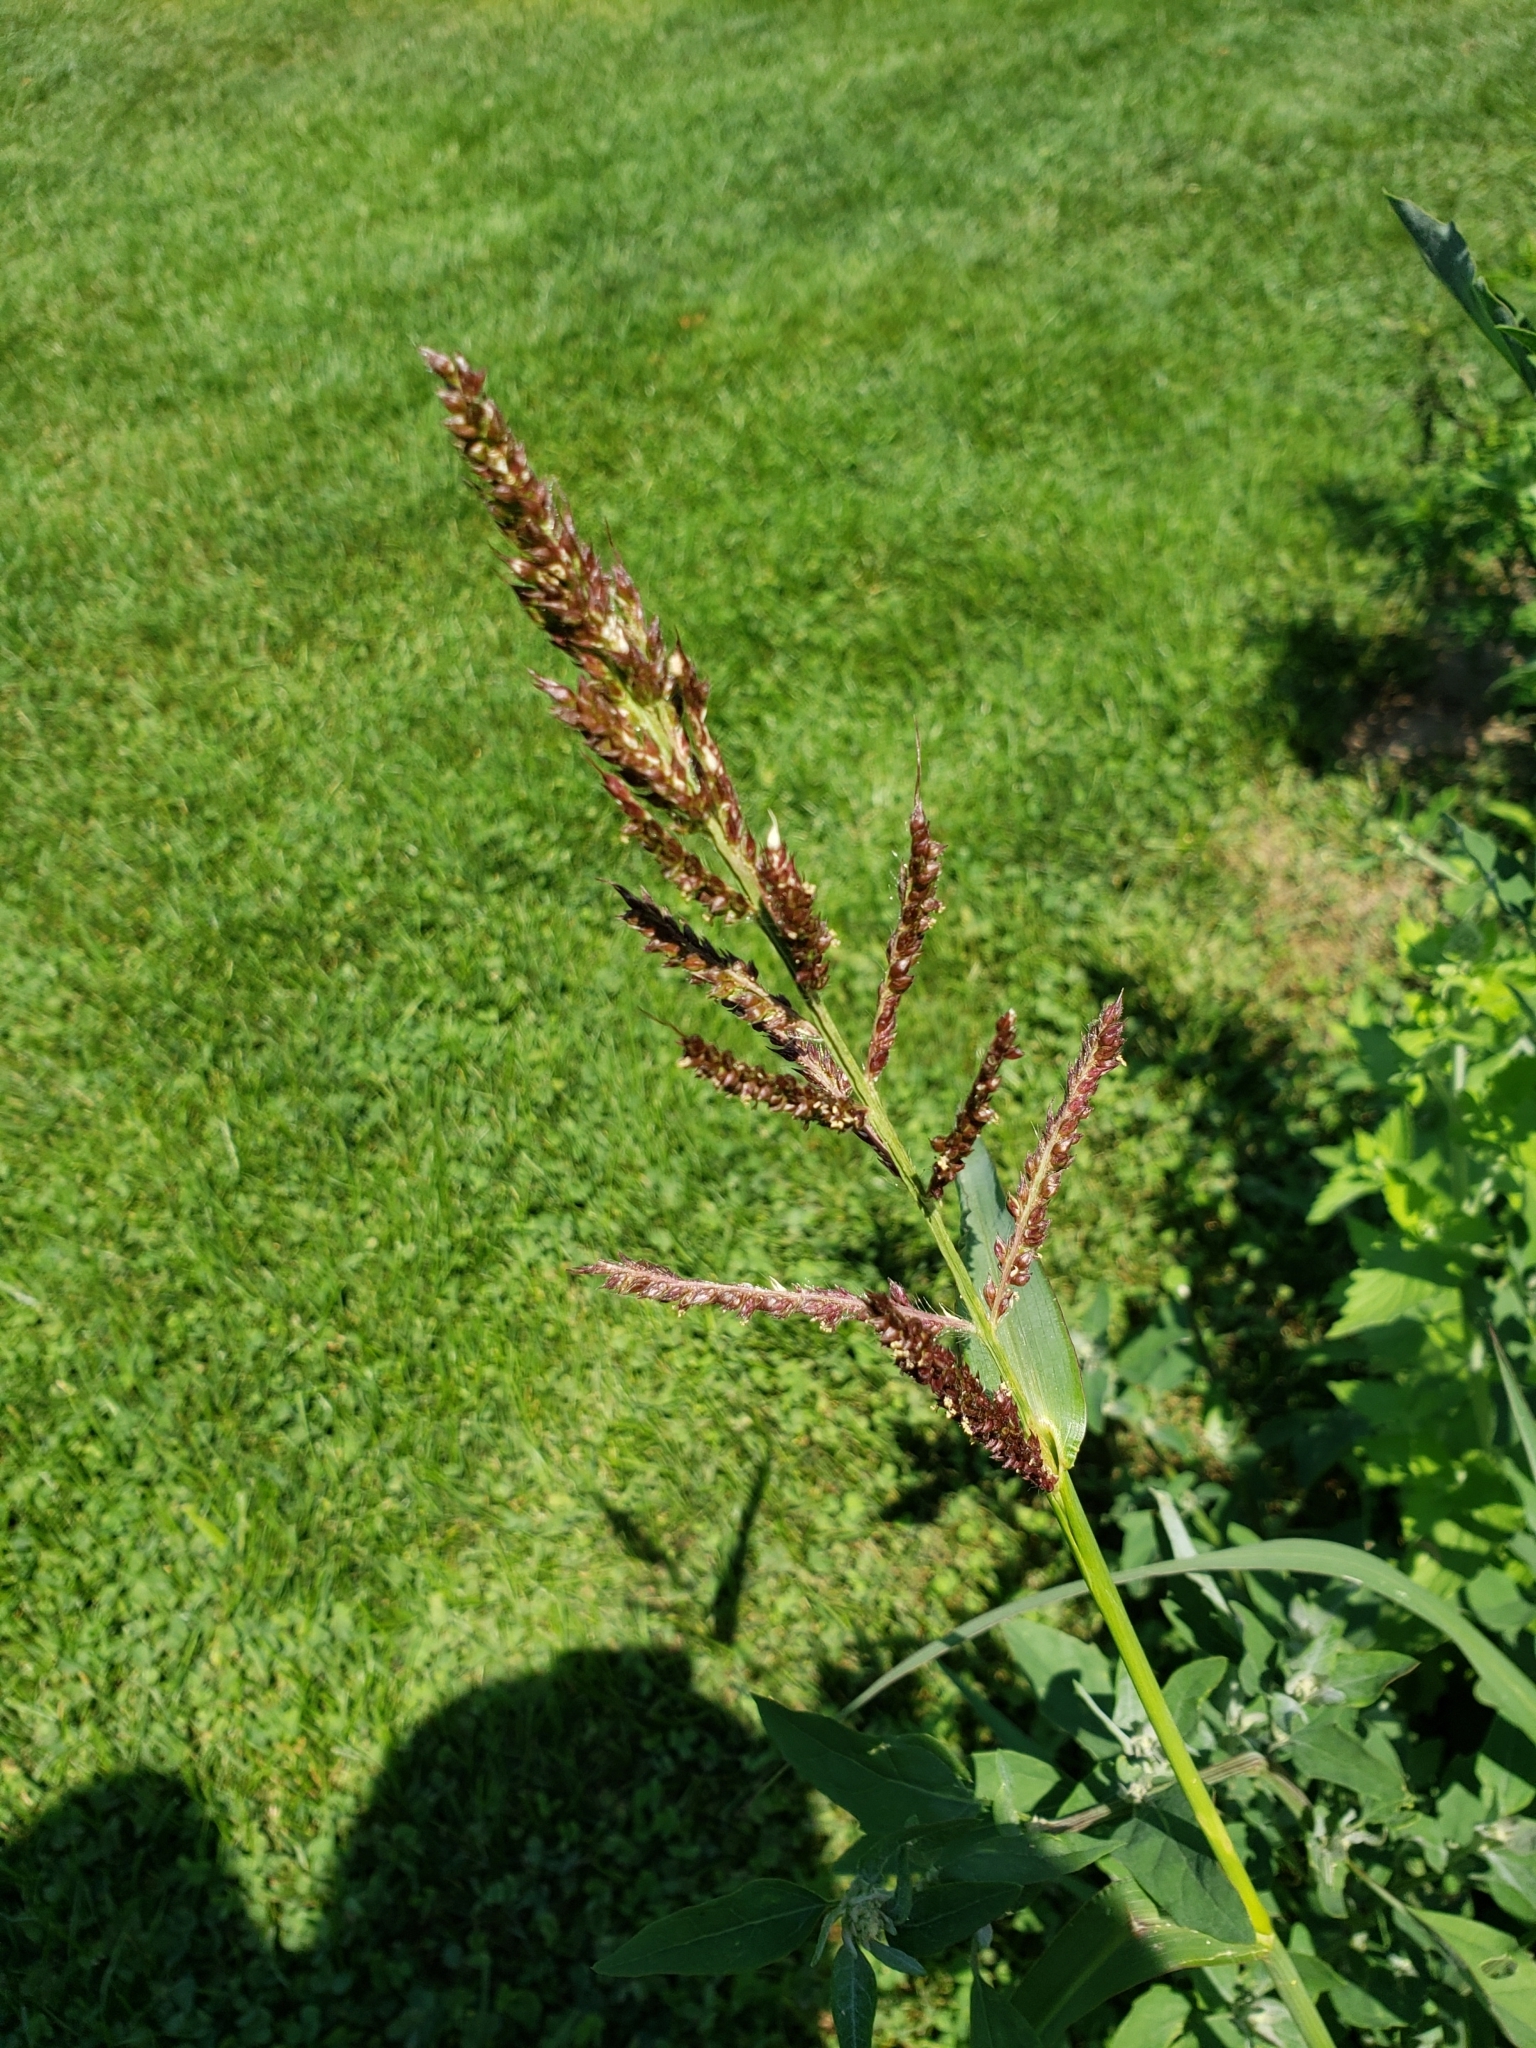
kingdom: Plantae
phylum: Tracheophyta
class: Liliopsida
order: Poales
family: Poaceae
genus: Echinochloa
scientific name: Echinochloa crus-galli
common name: Cockspur
